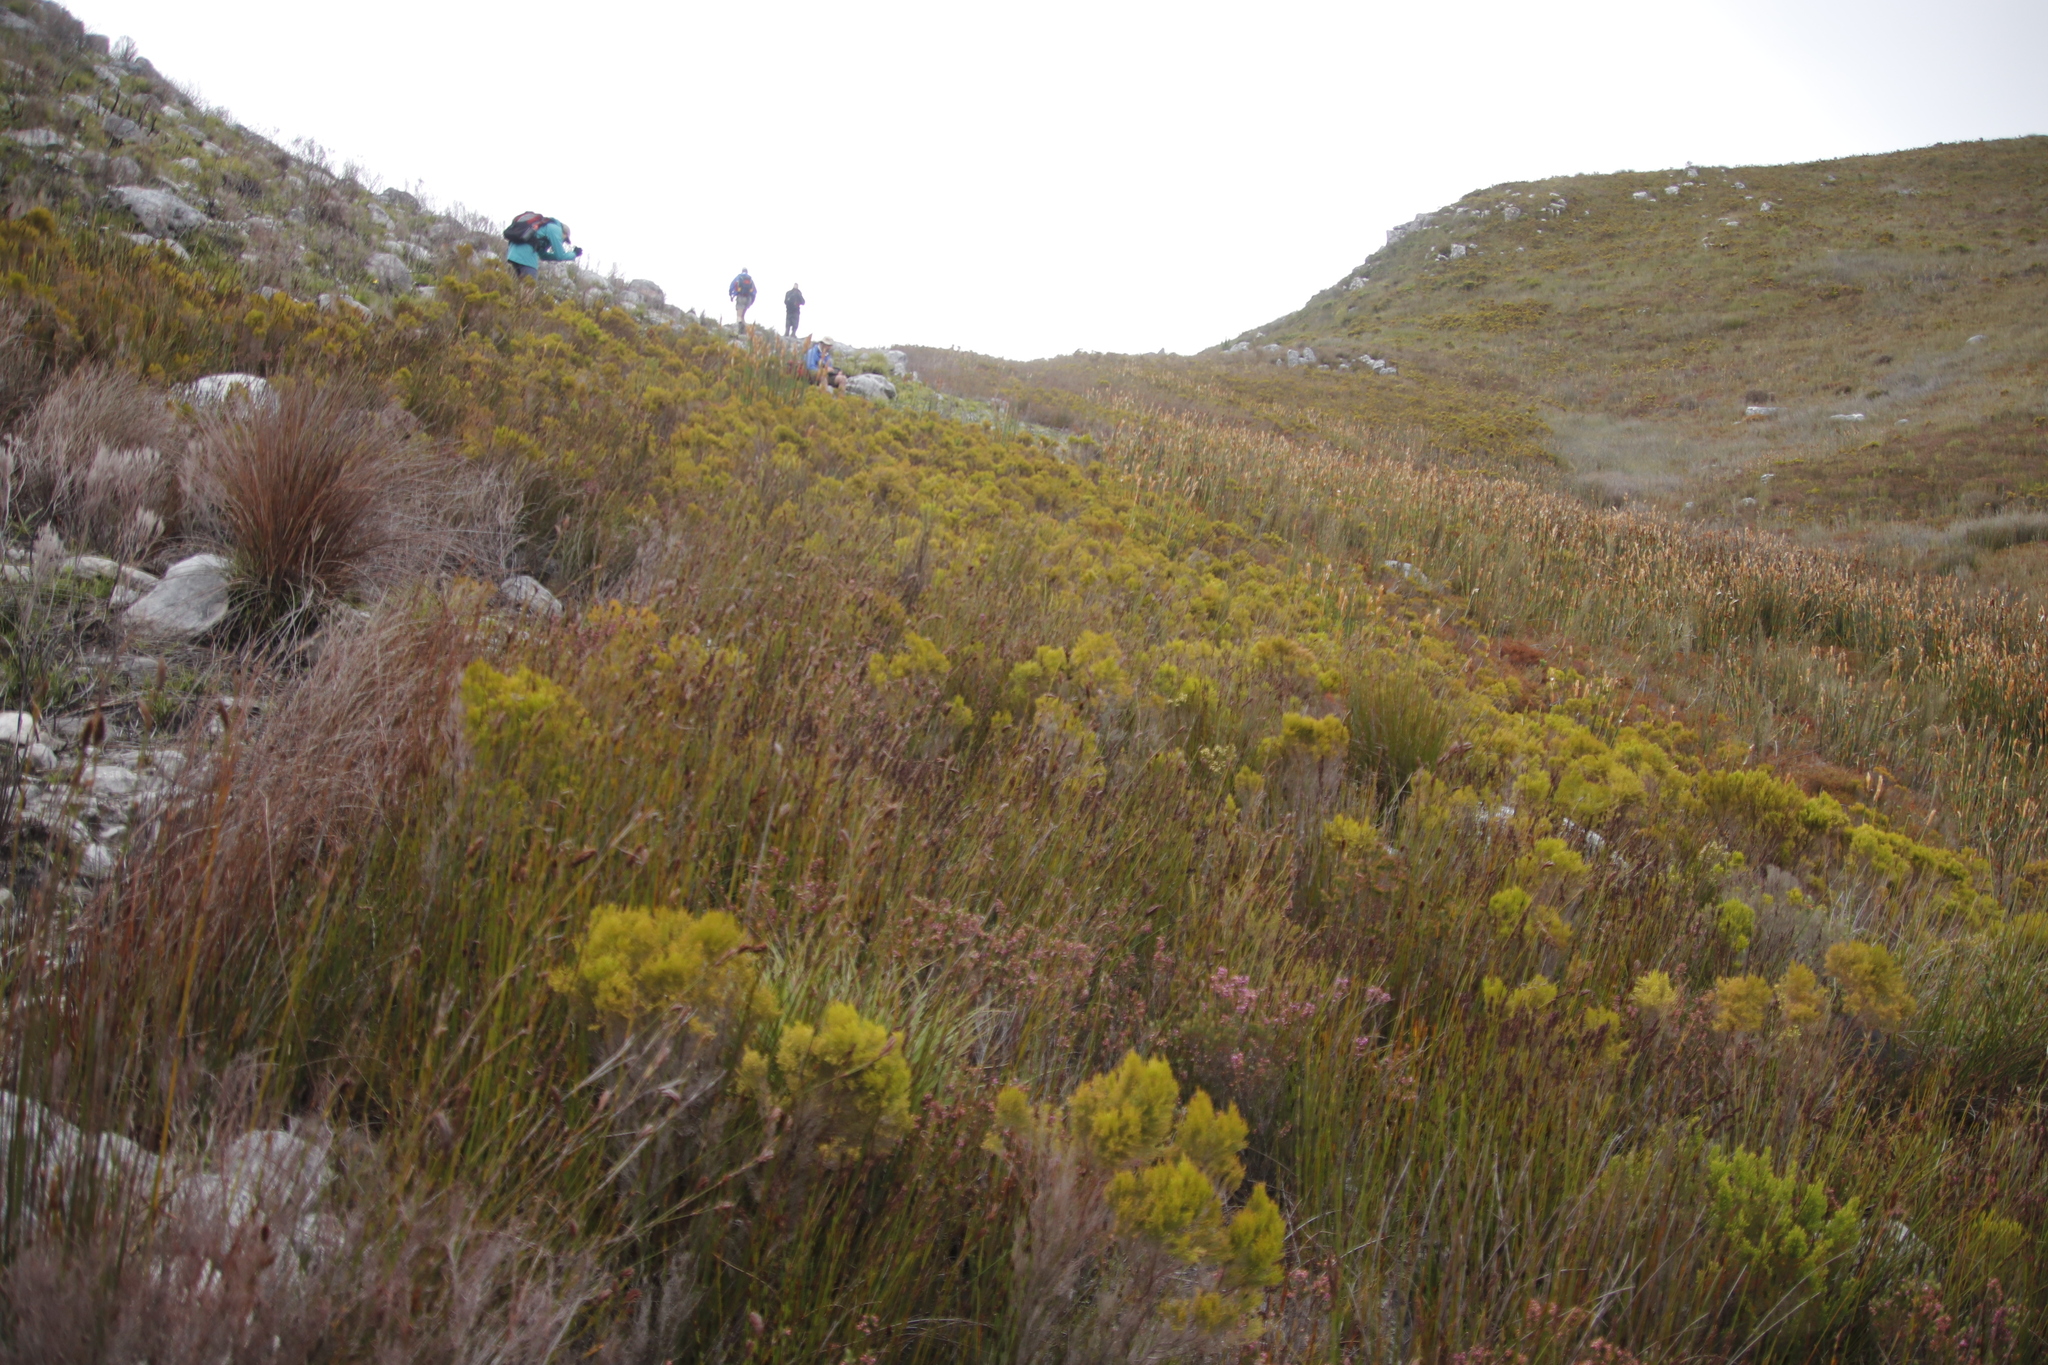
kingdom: Plantae
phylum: Tracheophyta
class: Liliopsida
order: Poales
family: Restionaceae
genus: Elegia
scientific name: Elegia mucronata
